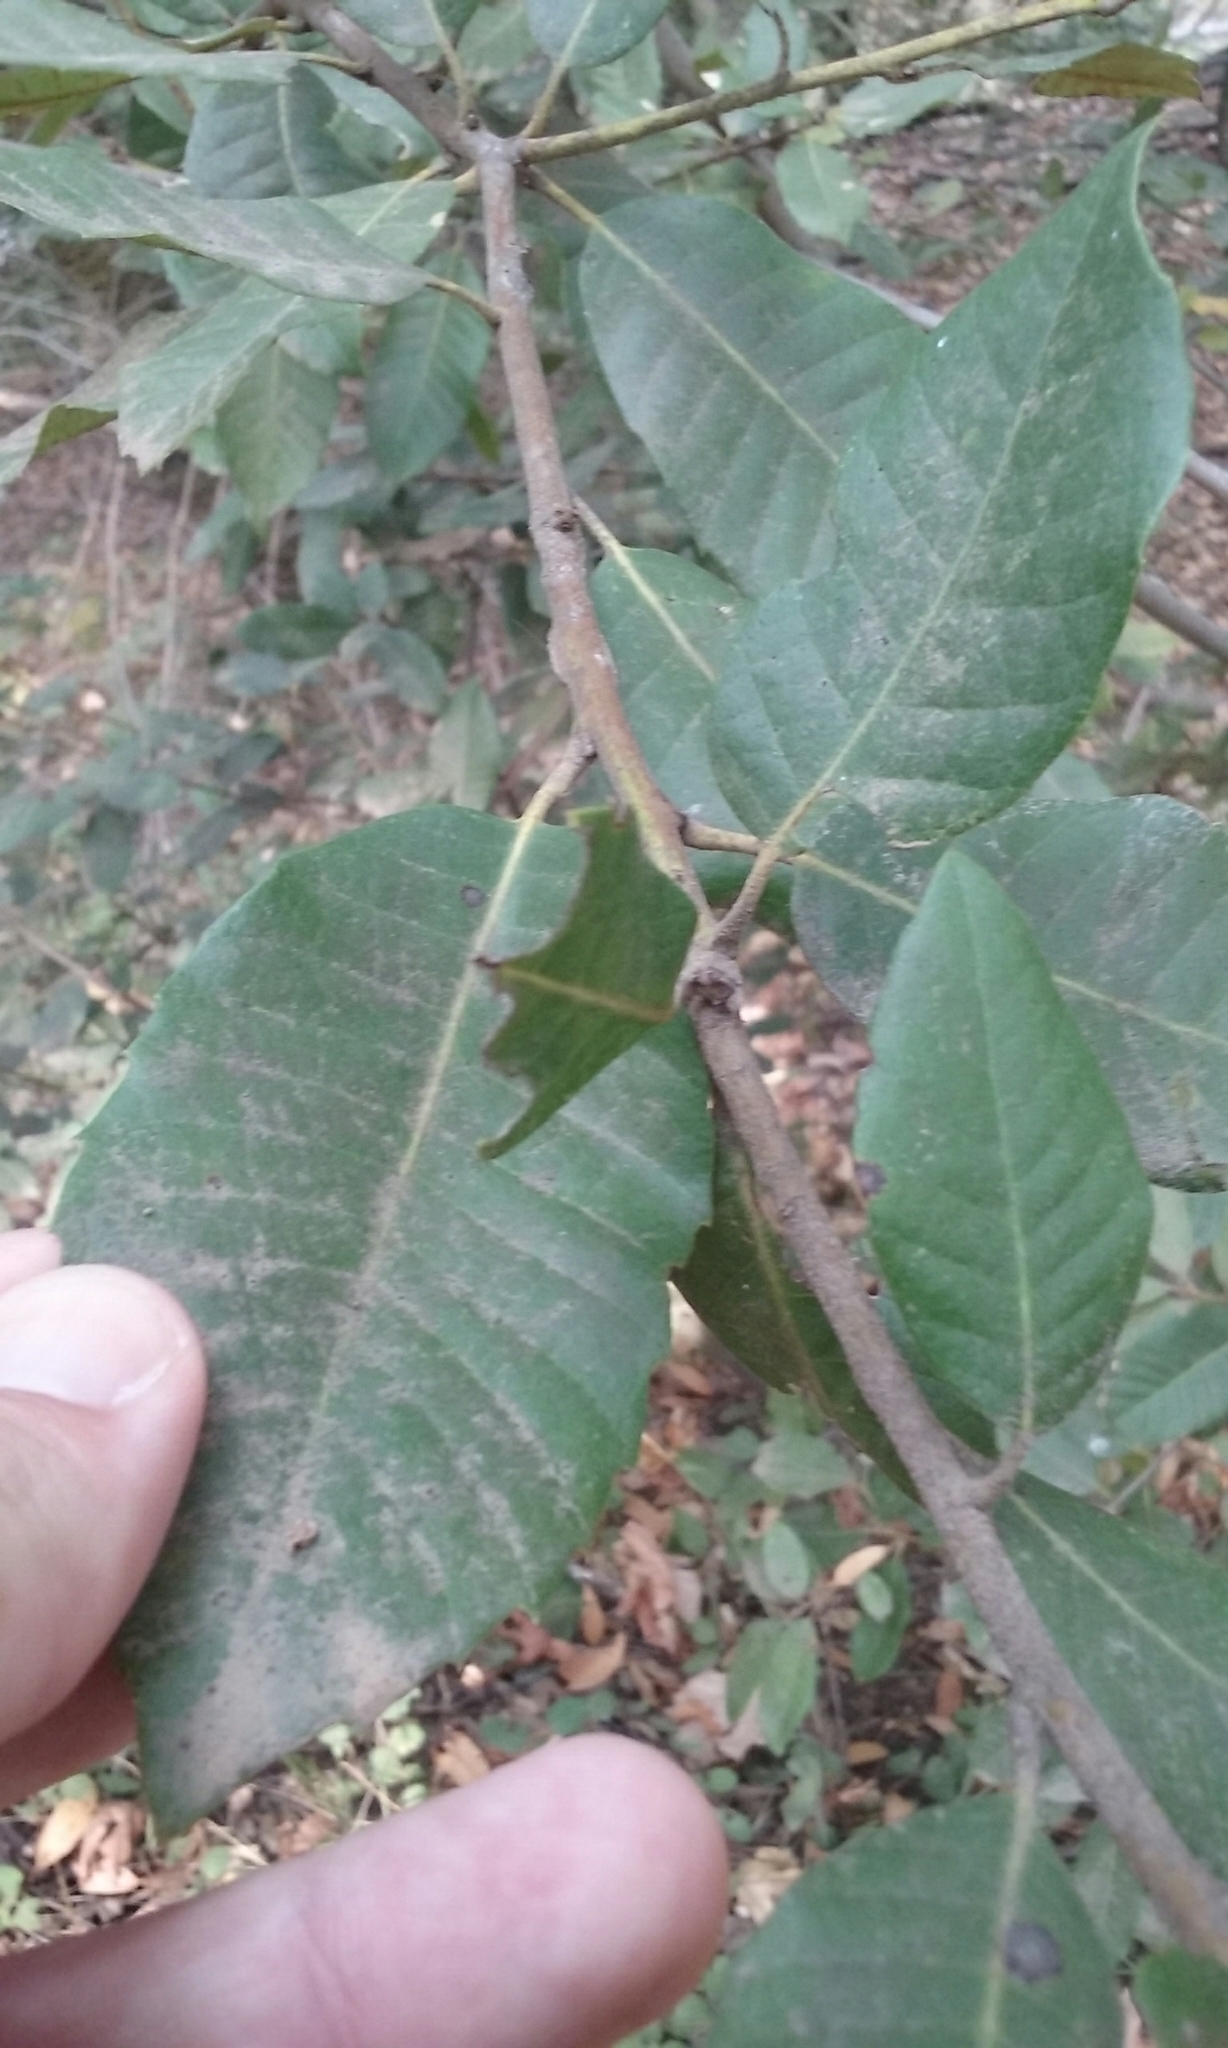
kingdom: Plantae
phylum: Tracheophyta
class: Magnoliopsida
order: Fagales
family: Fagaceae
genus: Notholithocarpus
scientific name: Notholithocarpus densiflorus
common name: Tan bark oak
